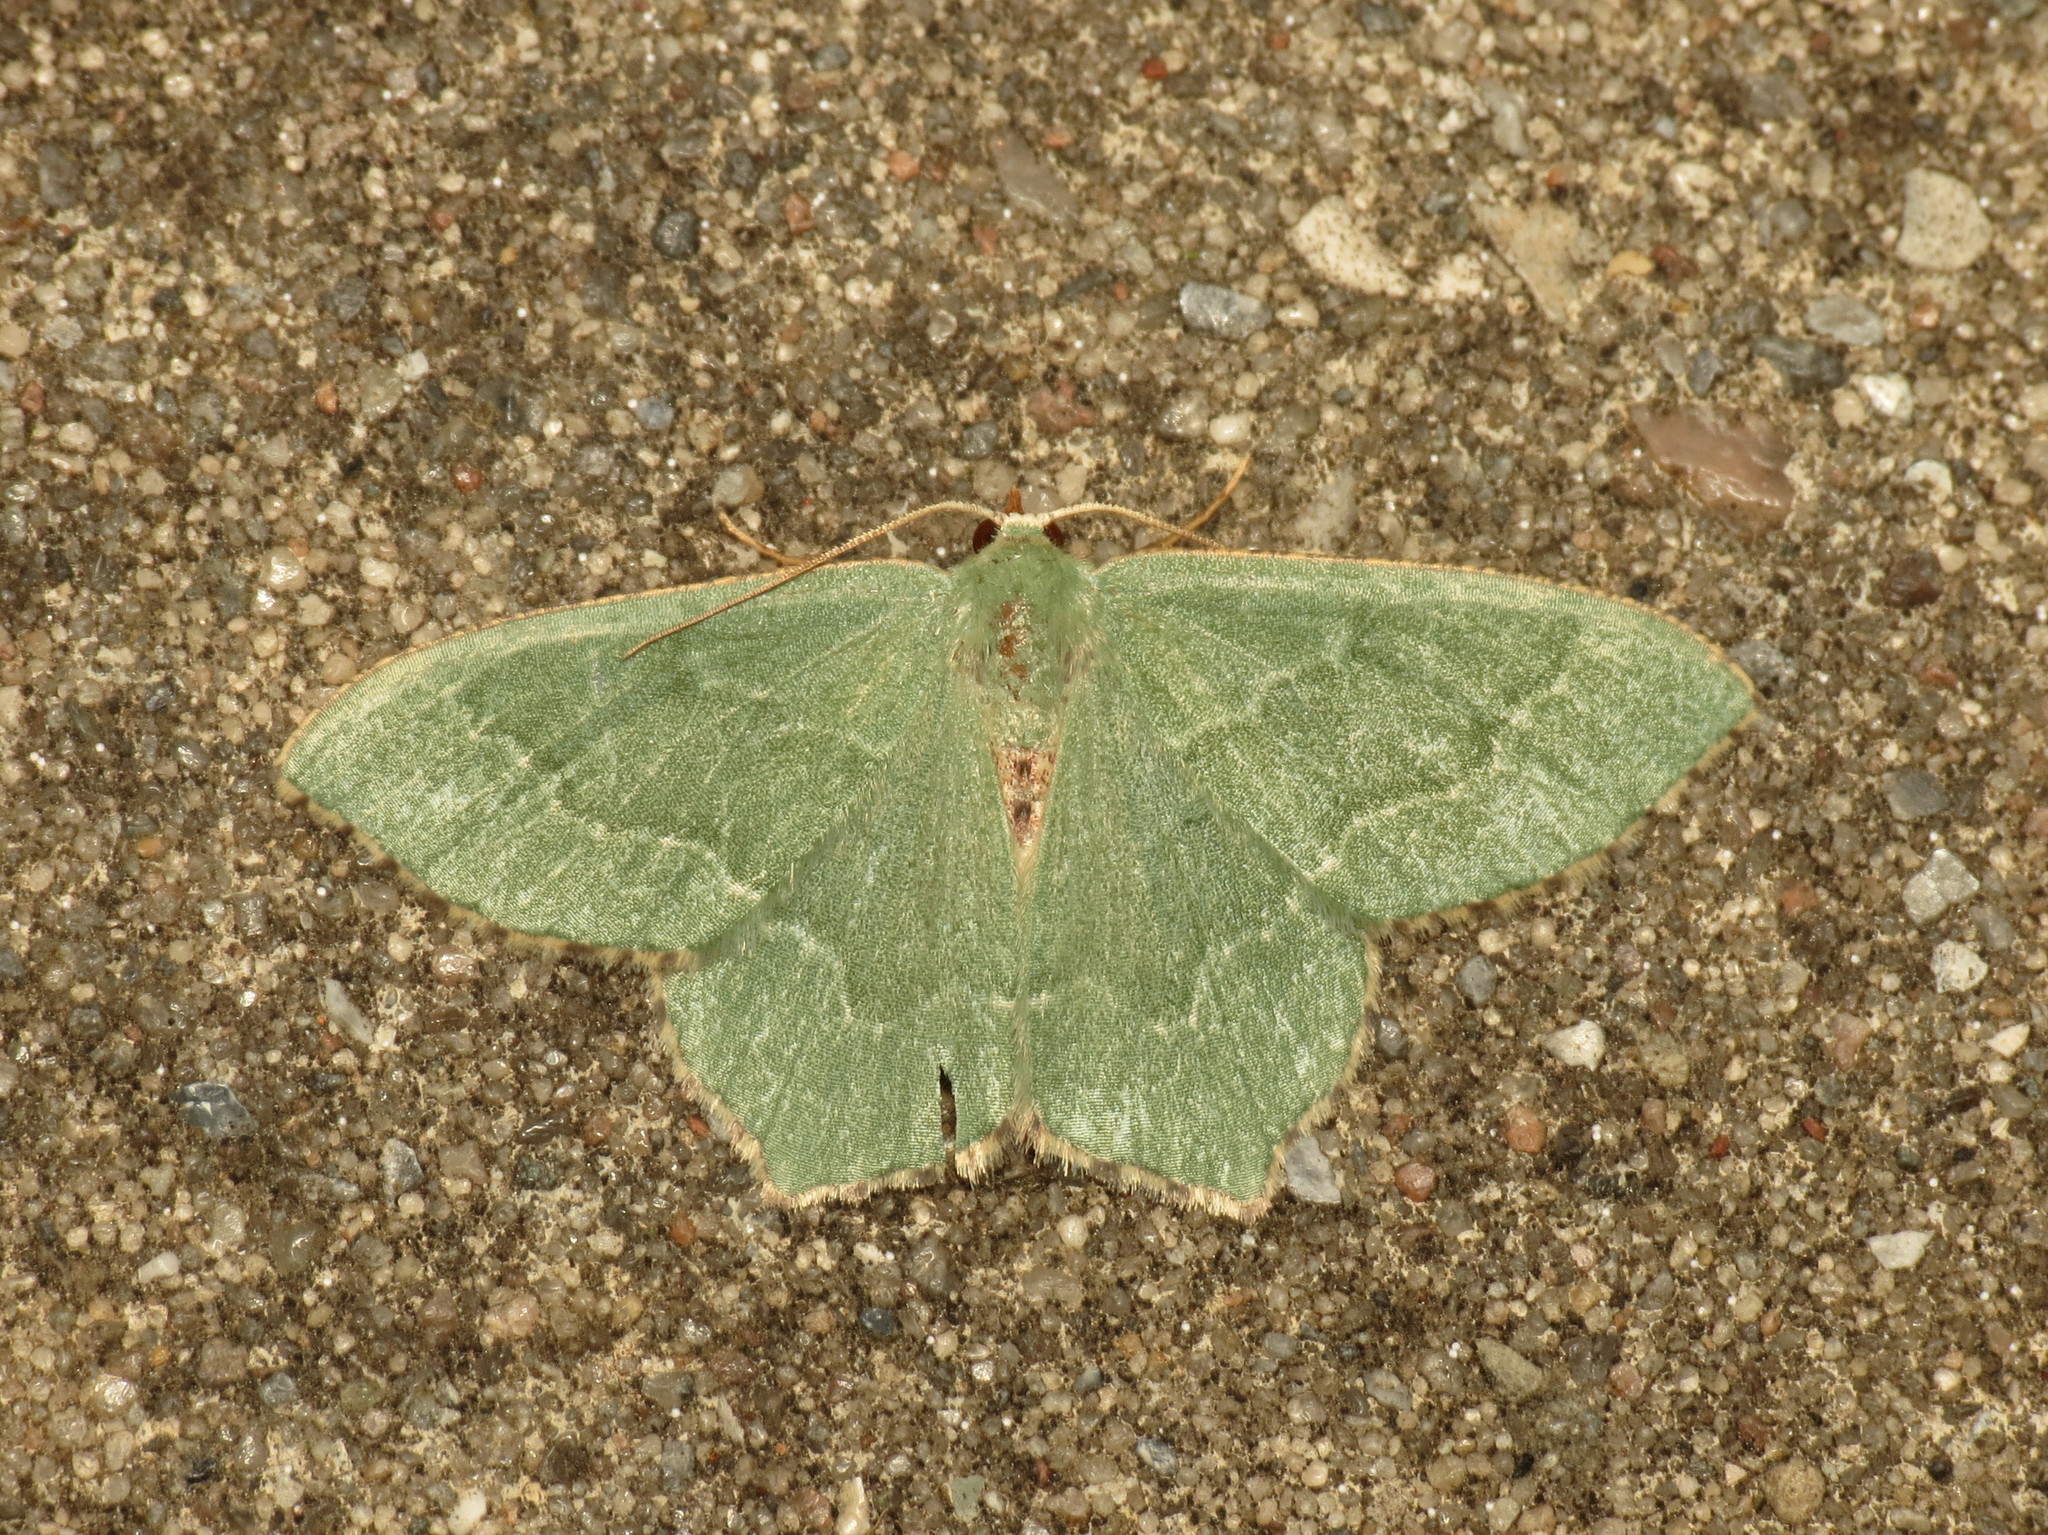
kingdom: Animalia
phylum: Arthropoda
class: Insecta
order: Lepidoptera
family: Geometridae
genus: Hemithea
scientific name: Hemithea aestivaria
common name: Common emerald
